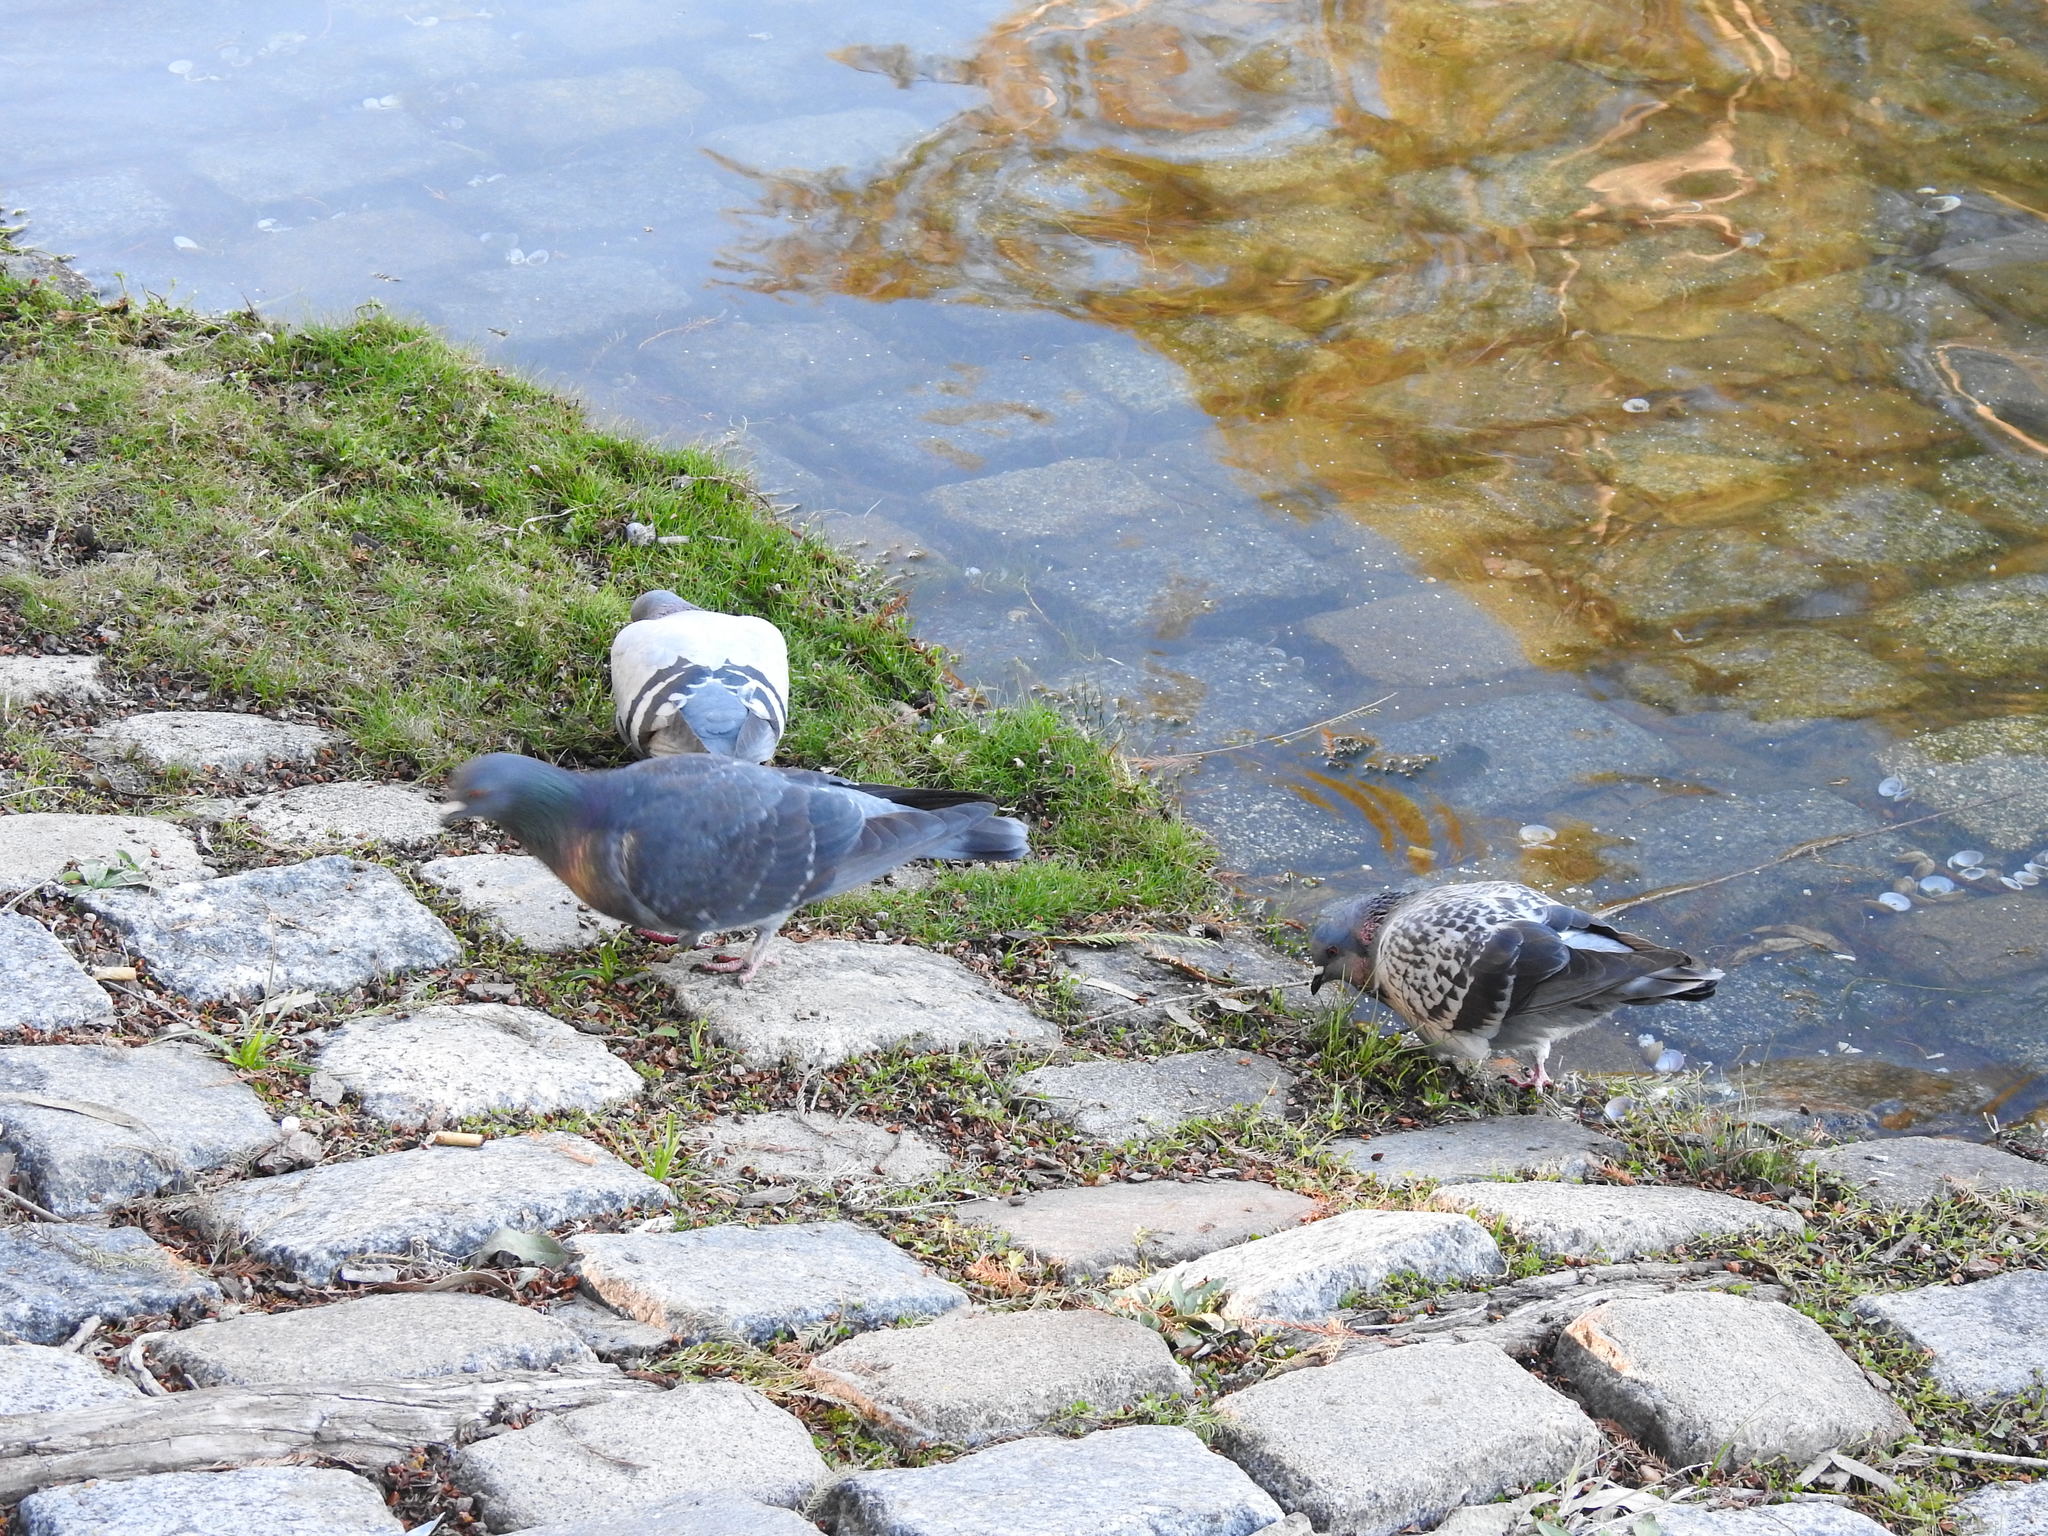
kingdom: Animalia
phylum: Chordata
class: Aves
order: Columbiformes
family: Columbidae
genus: Columba
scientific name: Columba livia
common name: Rock pigeon
